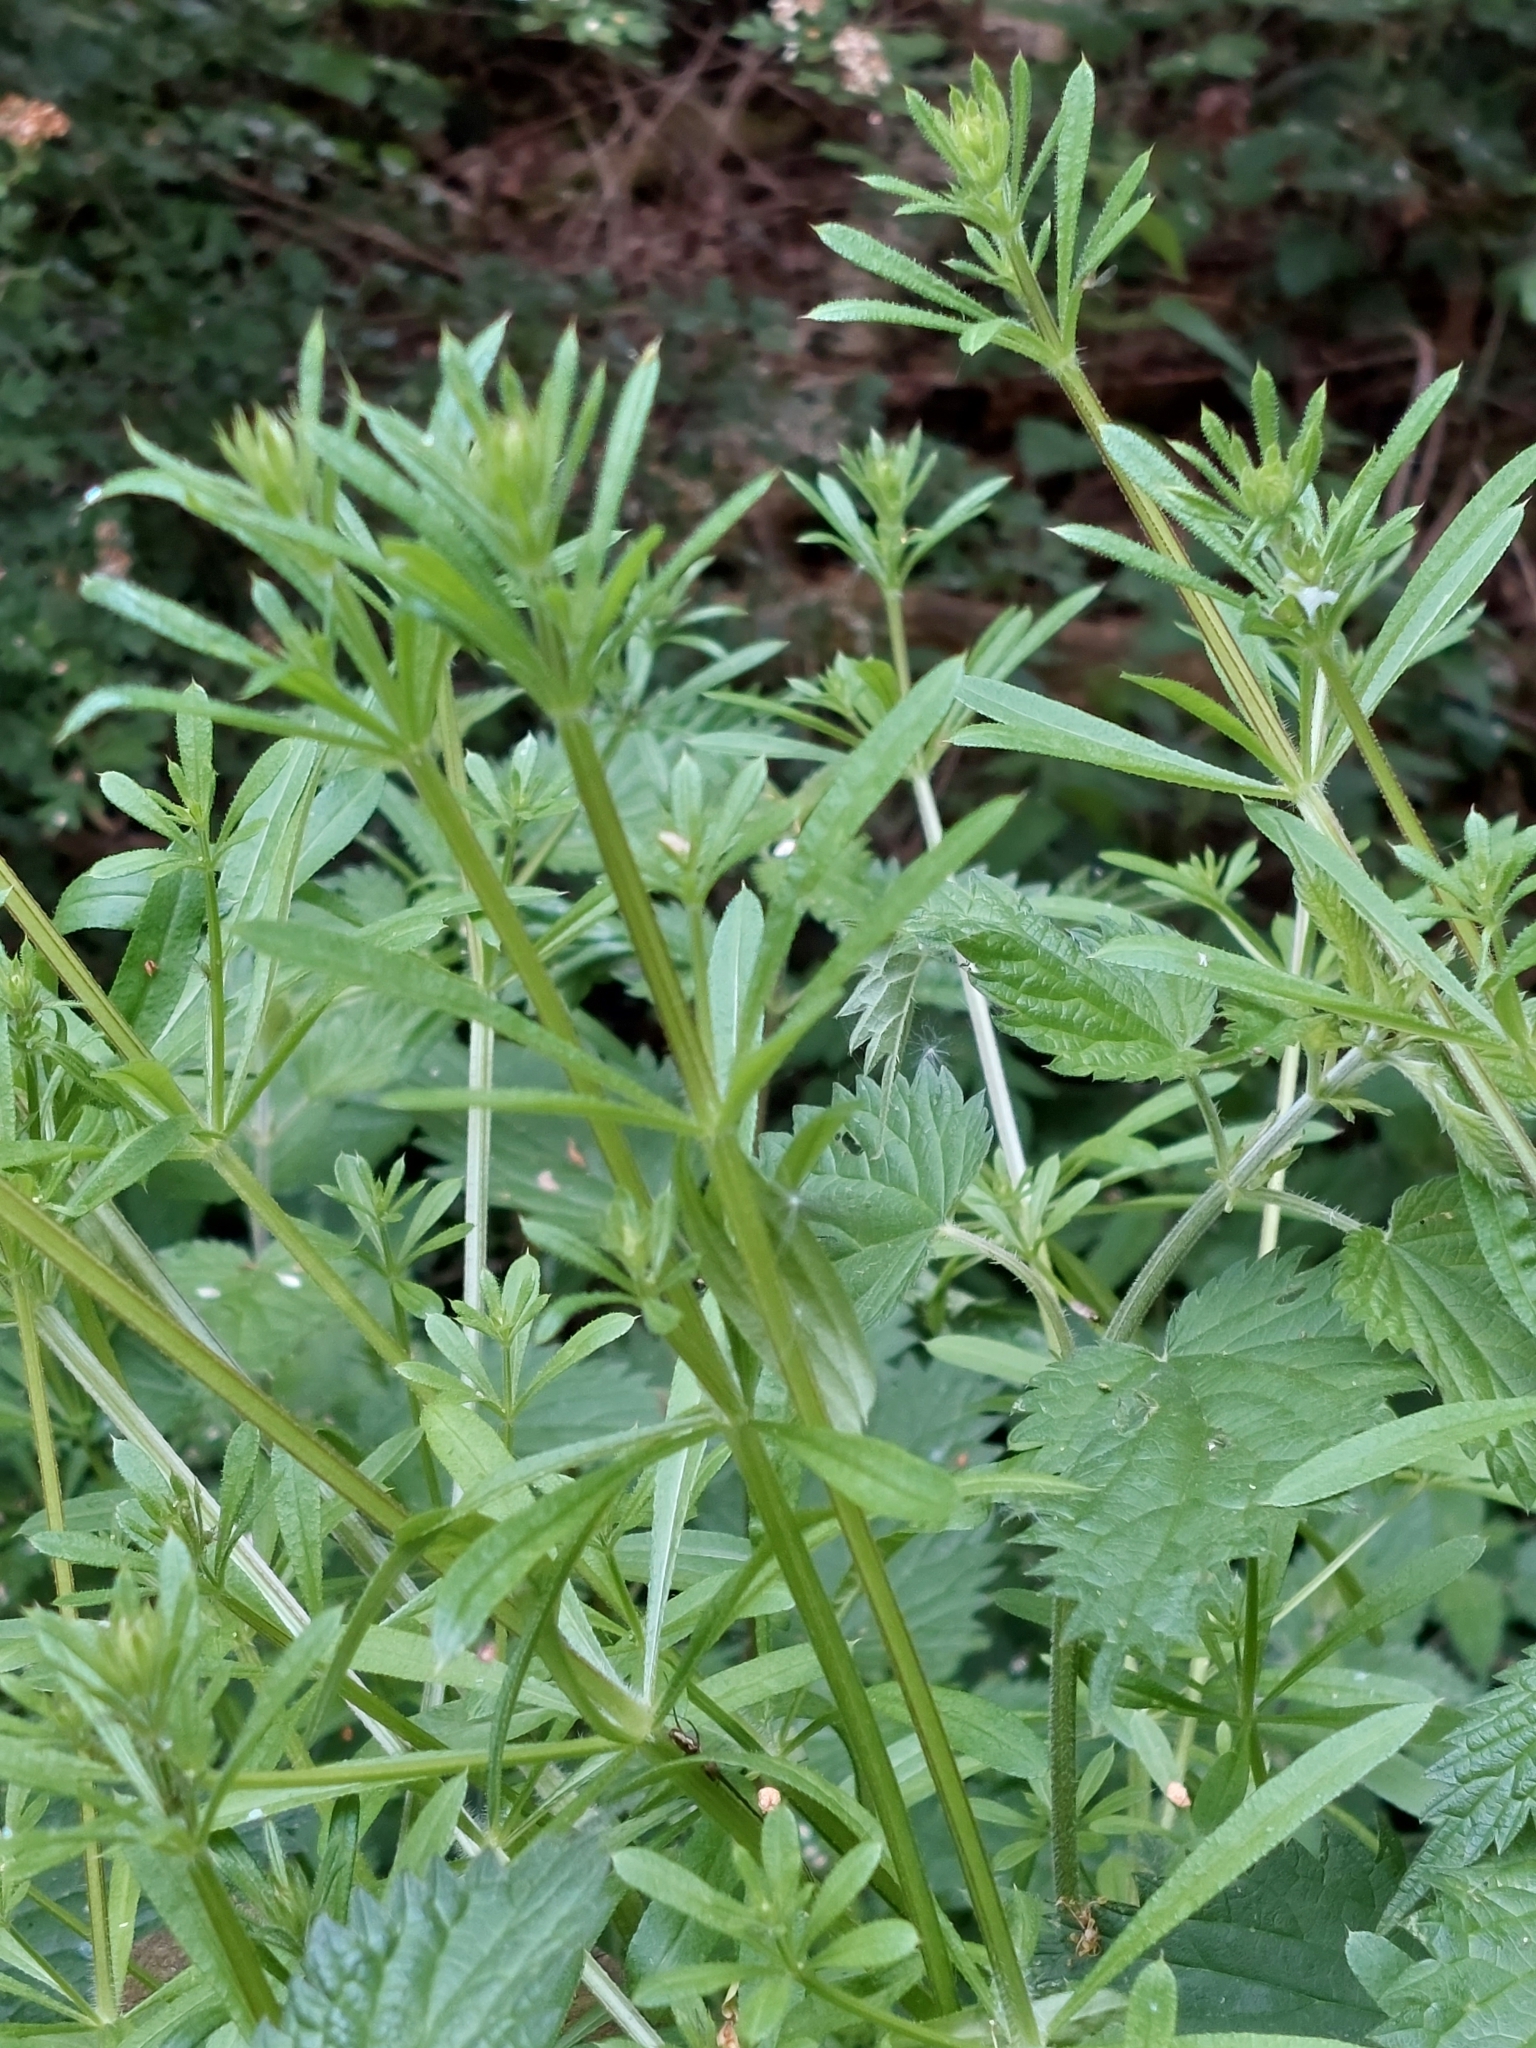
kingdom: Plantae
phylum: Tracheophyta
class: Magnoliopsida
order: Gentianales
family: Rubiaceae
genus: Galium
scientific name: Galium aparine
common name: Cleavers
